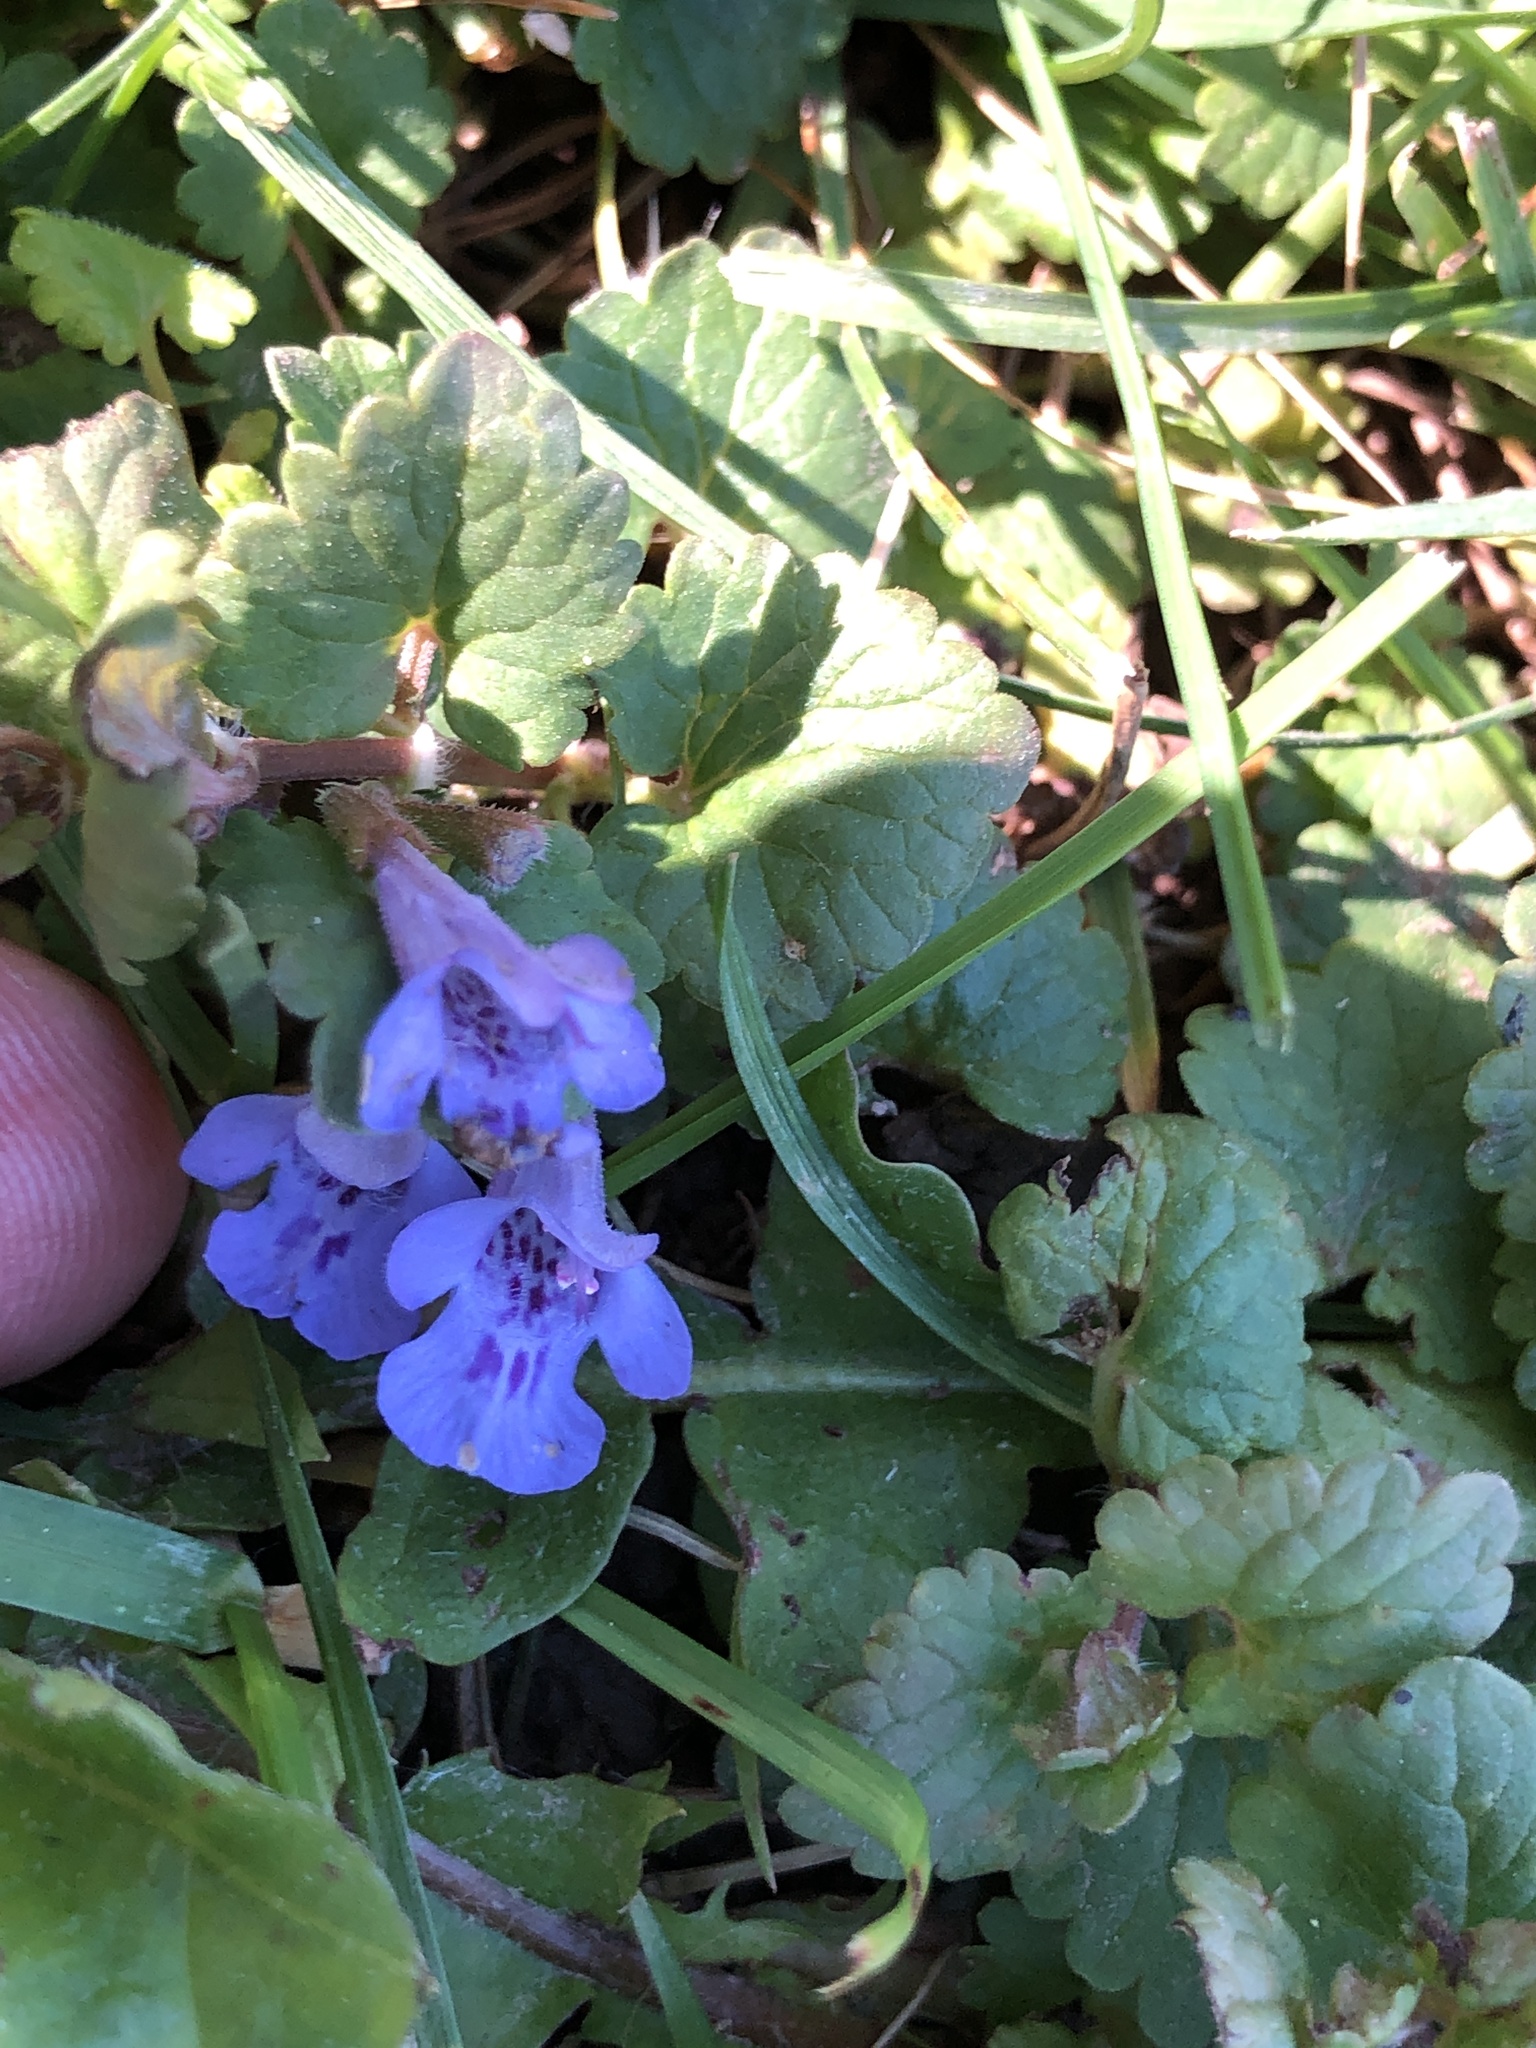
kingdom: Plantae
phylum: Tracheophyta
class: Magnoliopsida
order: Lamiales
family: Lamiaceae
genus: Glechoma
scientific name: Glechoma hederacea
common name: Ground ivy
